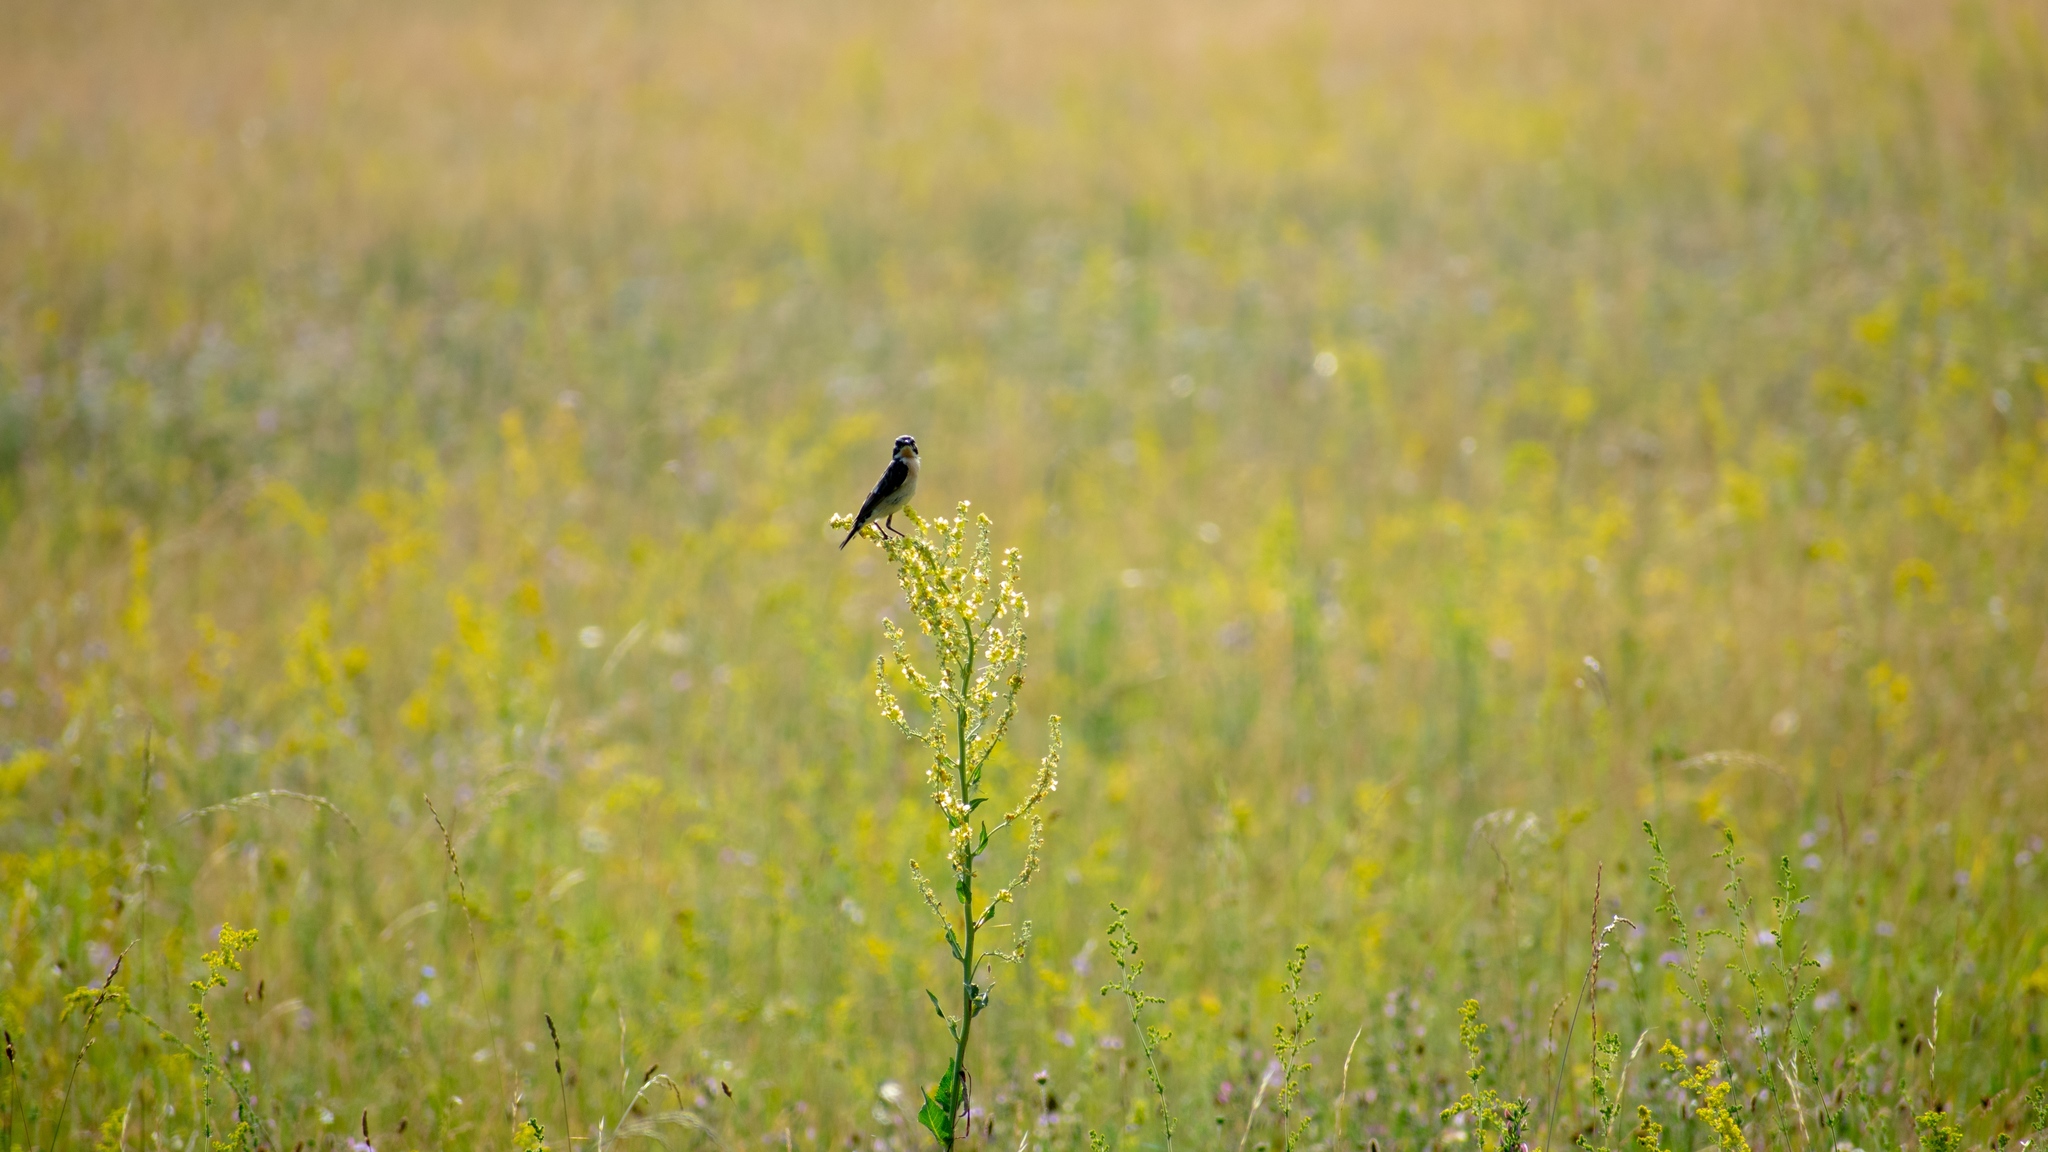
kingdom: Animalia
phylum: Chordata
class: Aves
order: Passeriformes
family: Muscicapidae
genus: Saxicola
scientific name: Saxicola rubetra
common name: Whinchat
